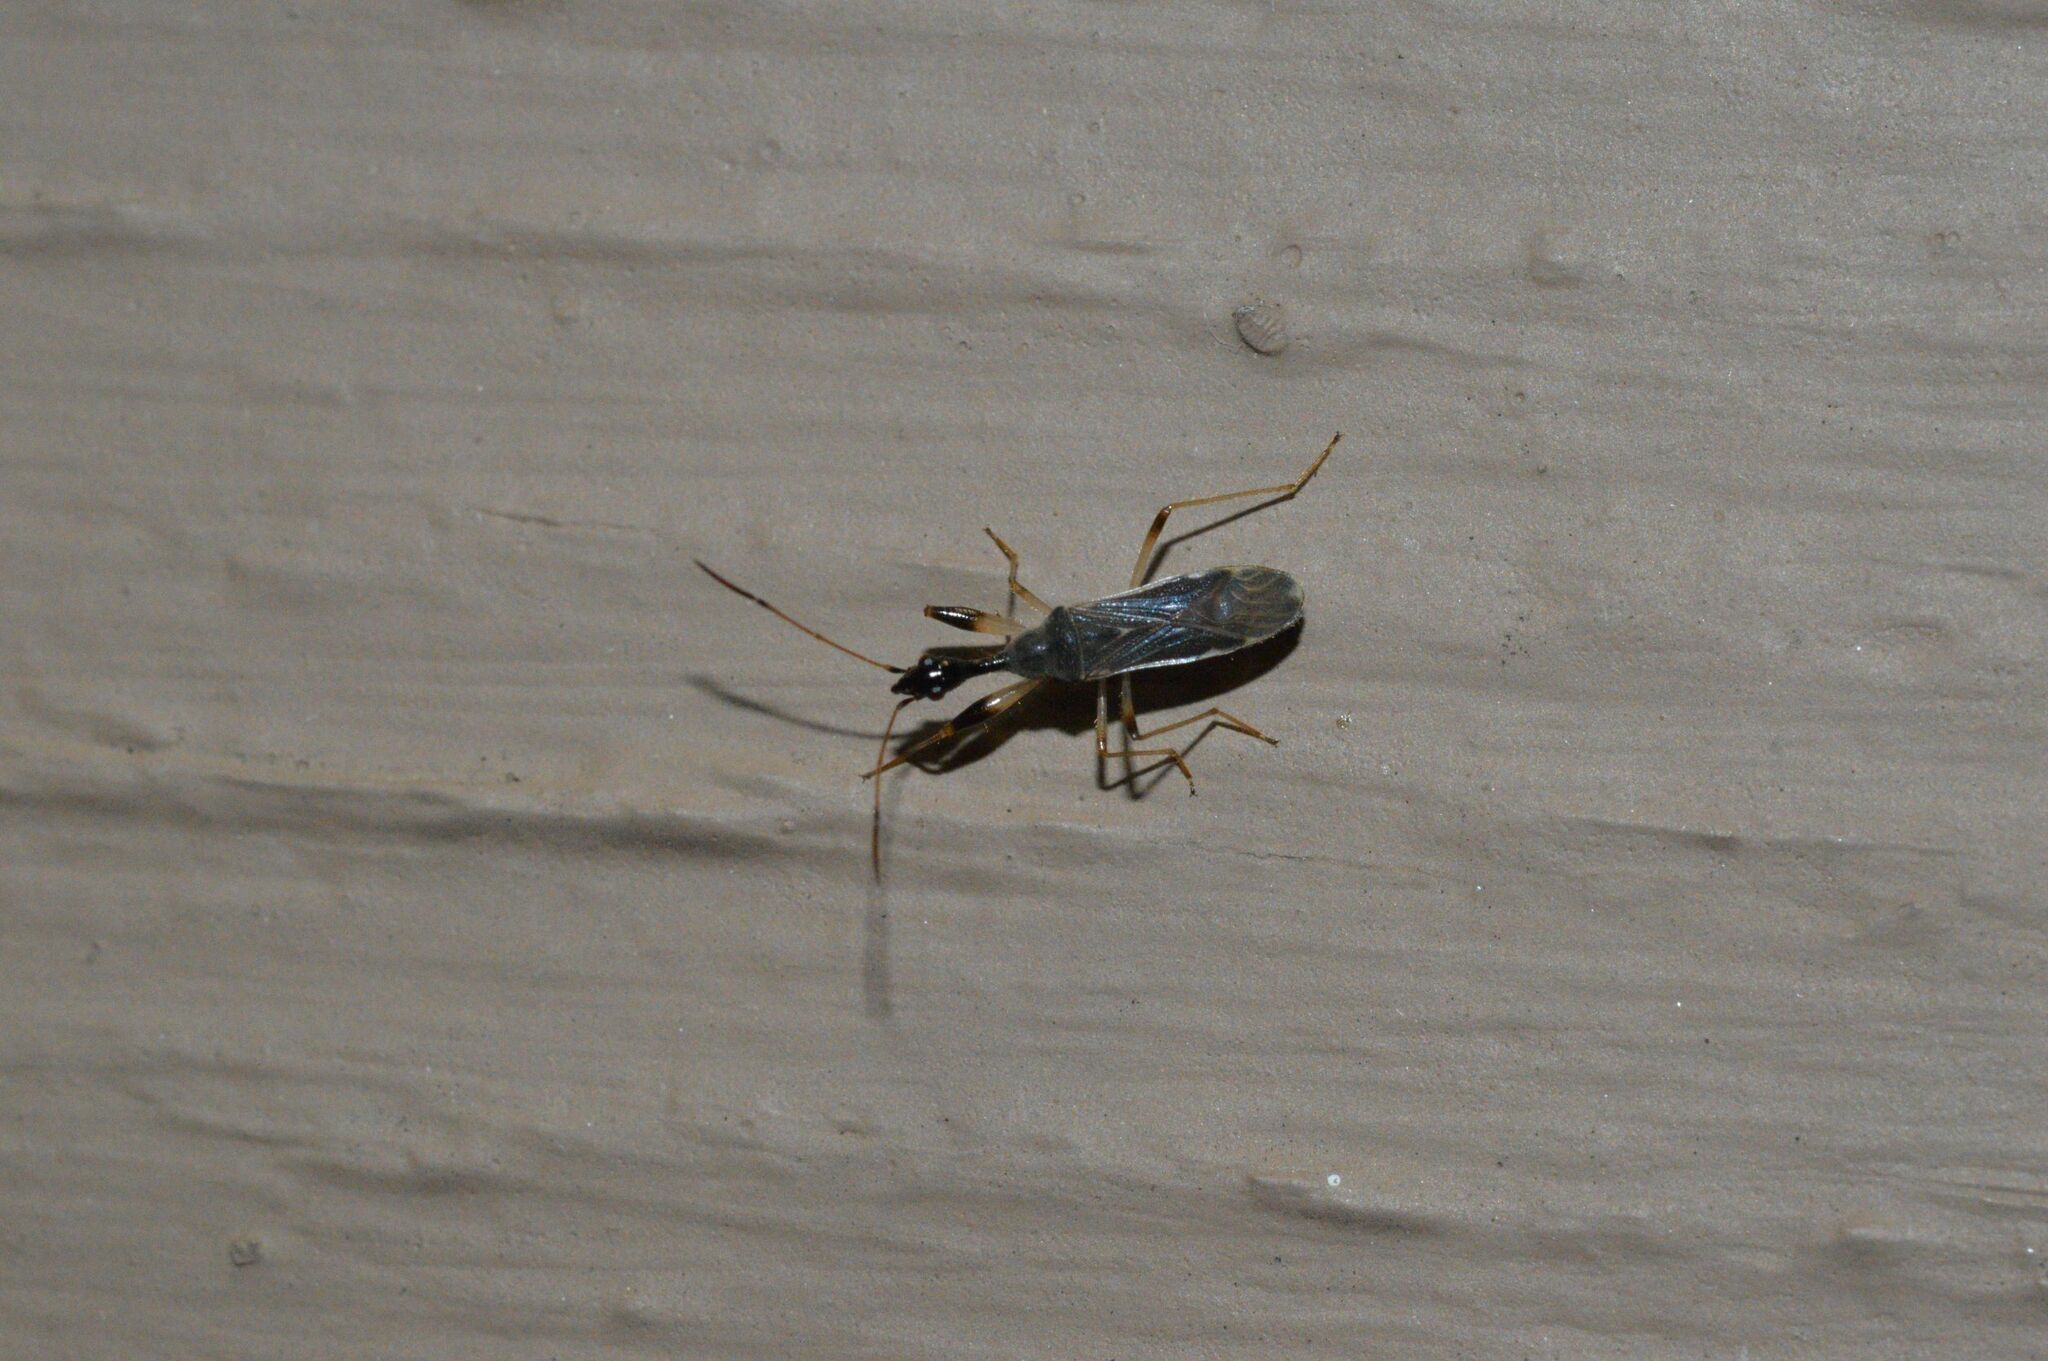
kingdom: Animalia
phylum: Arthropoda
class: Insecta
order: Hemiptera
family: Rhyparochromidae
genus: Myodocha
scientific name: Myodocha serripes
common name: Long-necked seed bug
